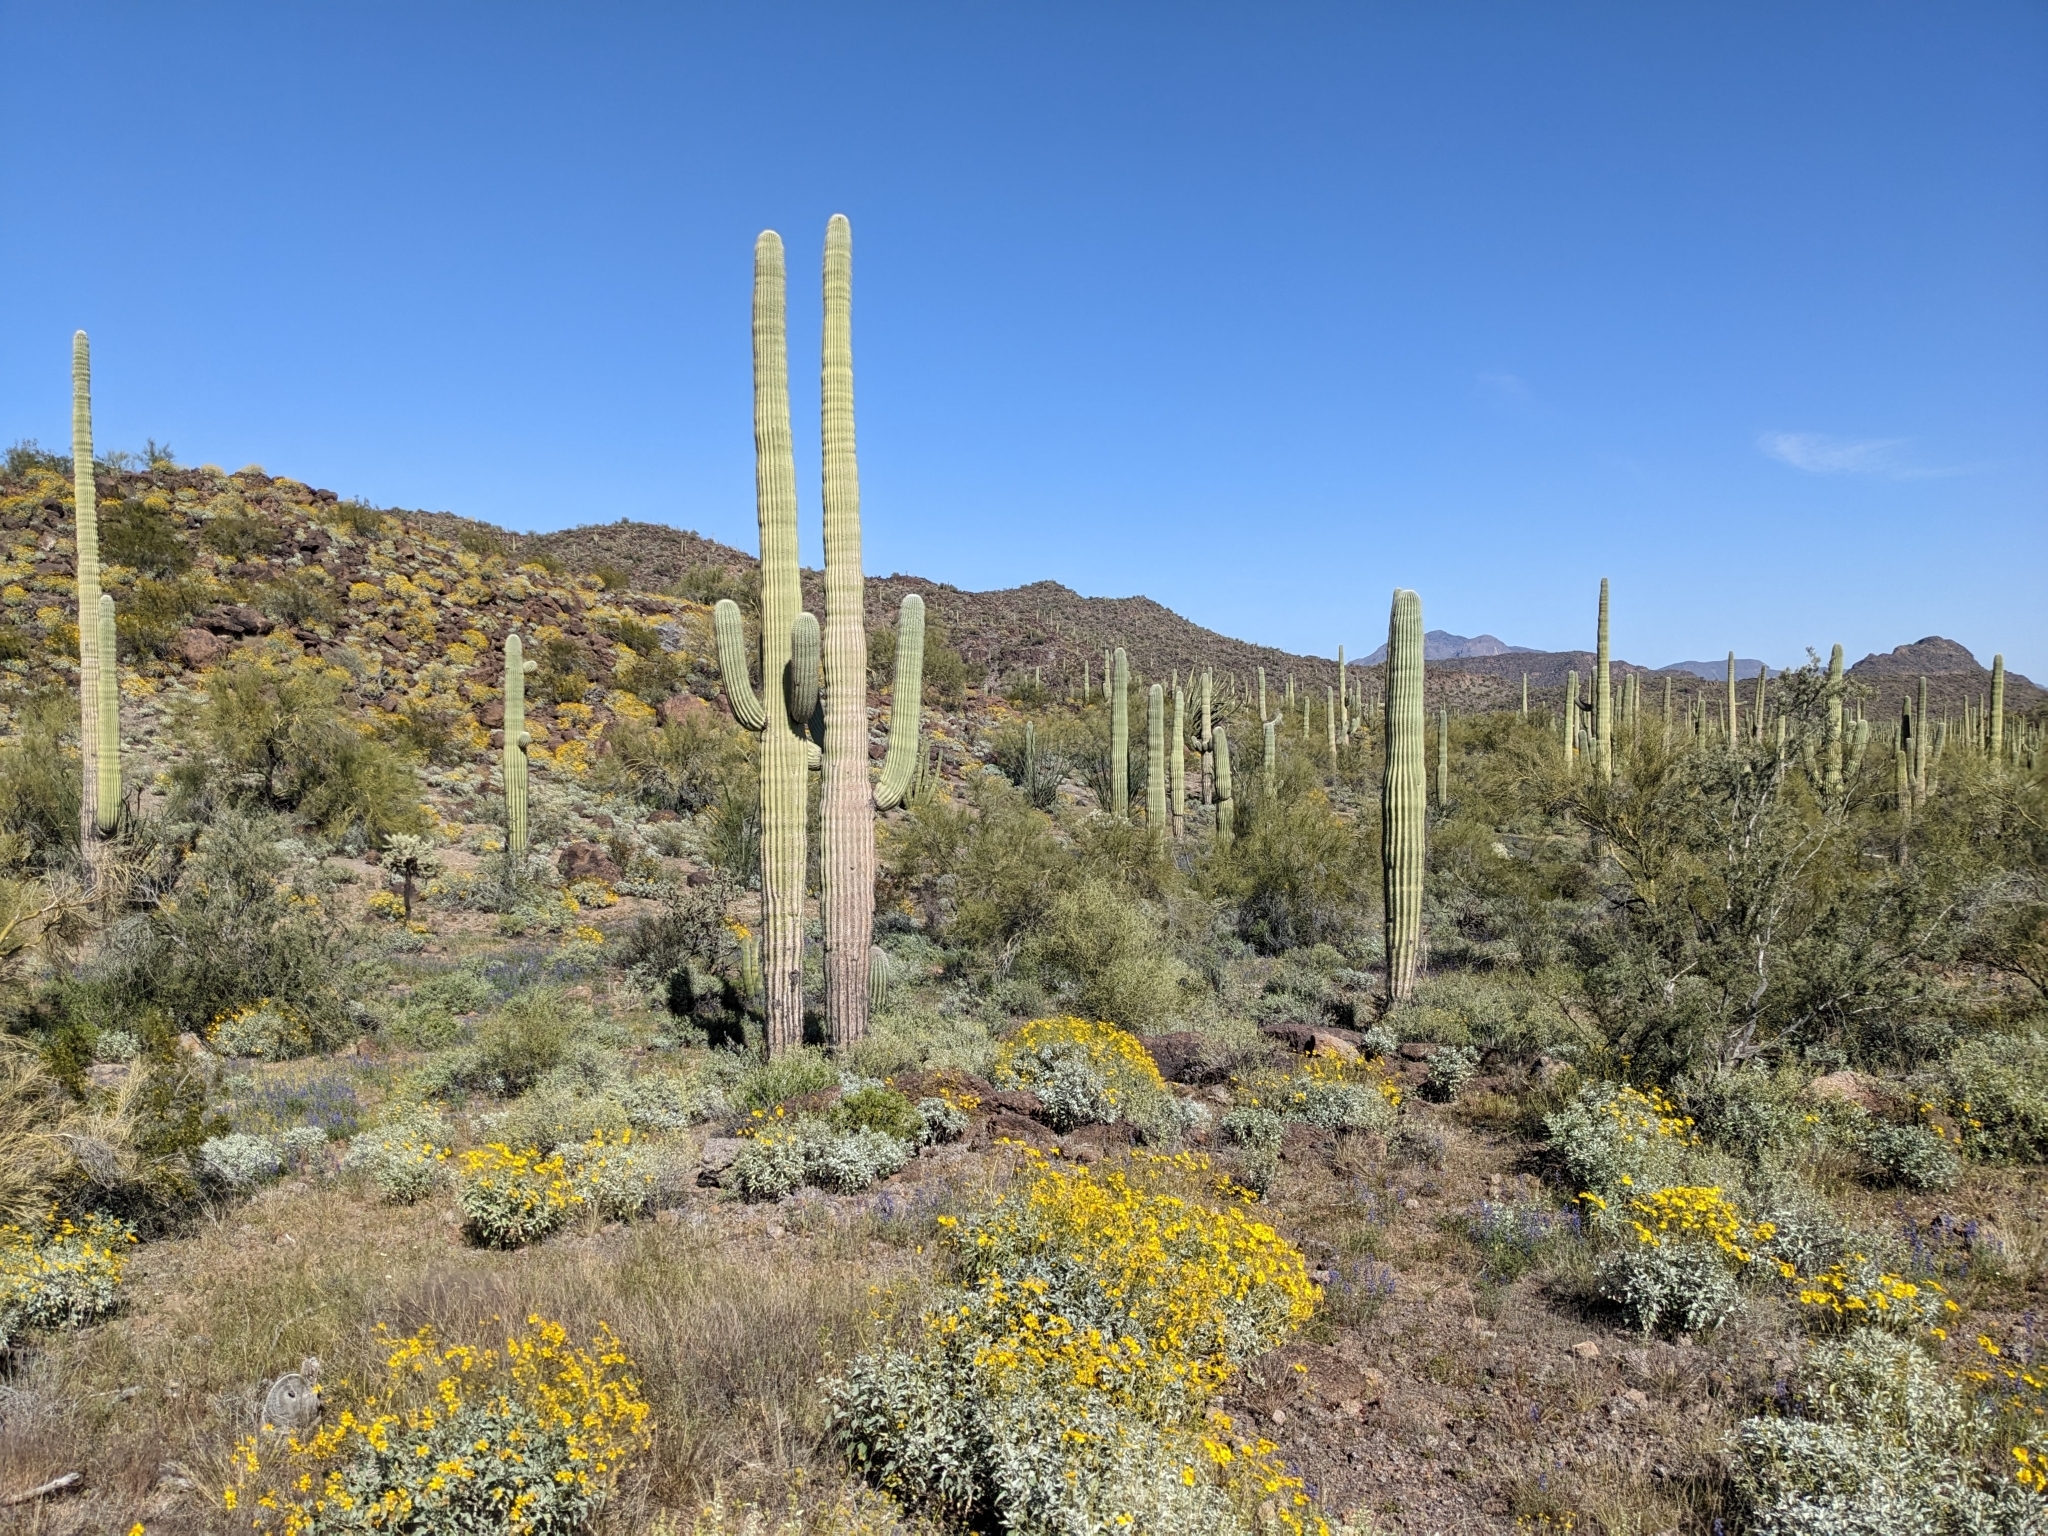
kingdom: Plantae
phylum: Tracheophyta
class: Magnoliopsida
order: Caryophyllales
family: Cactaceae
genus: Carnegiea
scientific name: Carnegiea gigantea
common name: Saguaro
